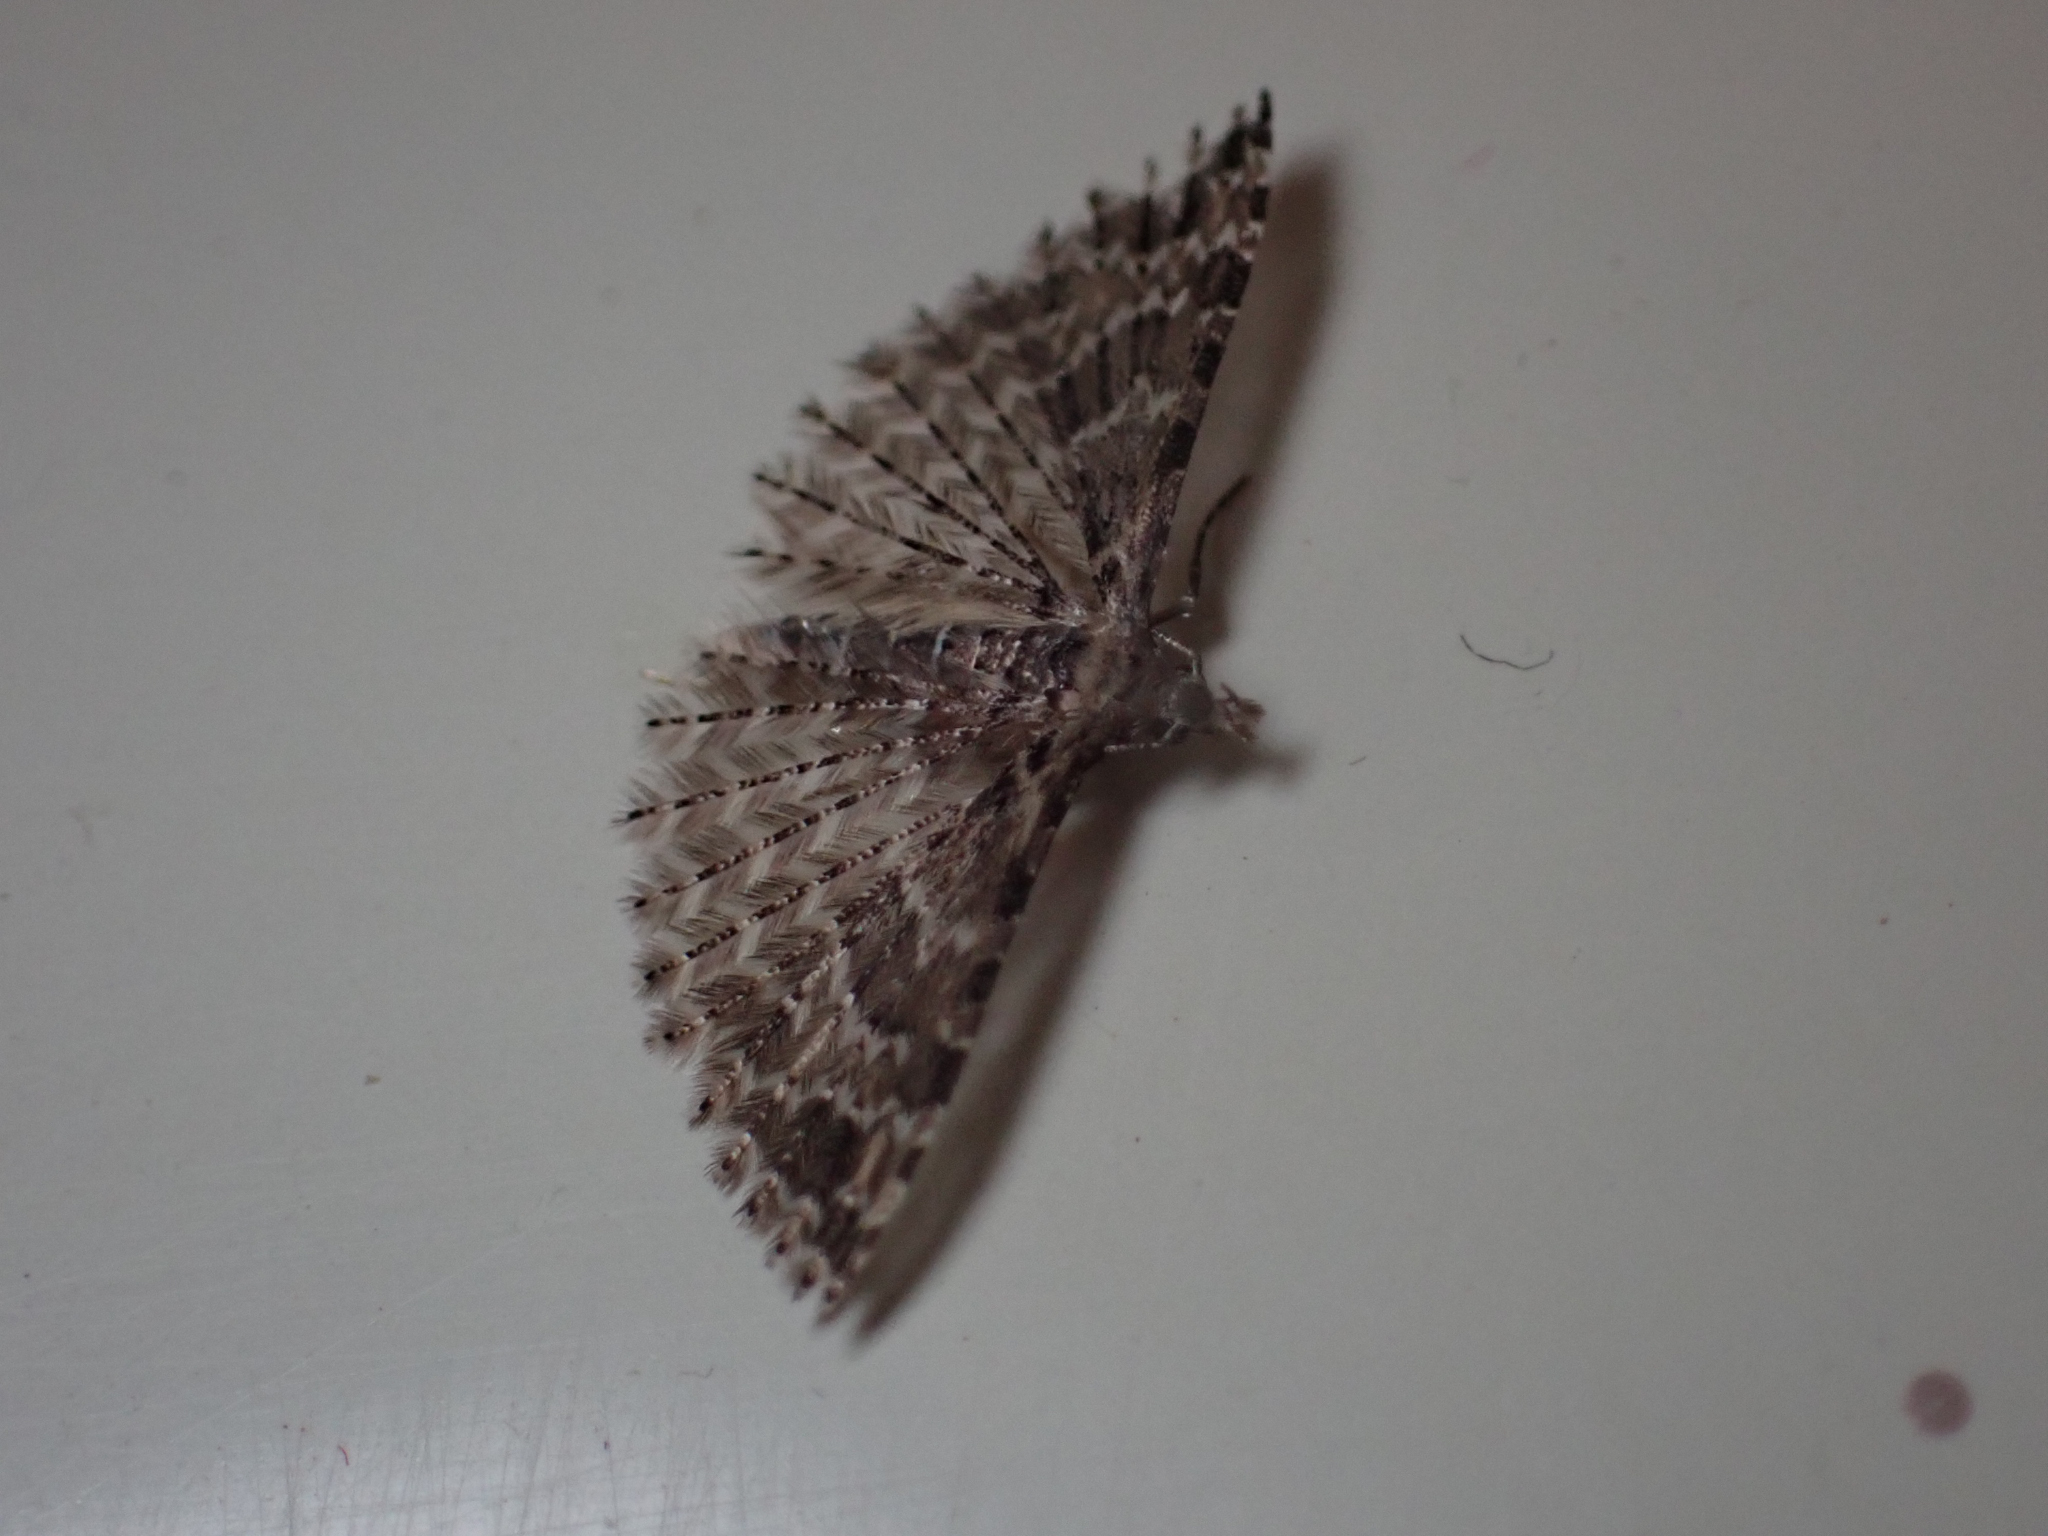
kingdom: Animalia
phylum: Arthropoda
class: Insecta
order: Lepidoptera
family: Alucitidae
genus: Alucita
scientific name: Alucita montana
